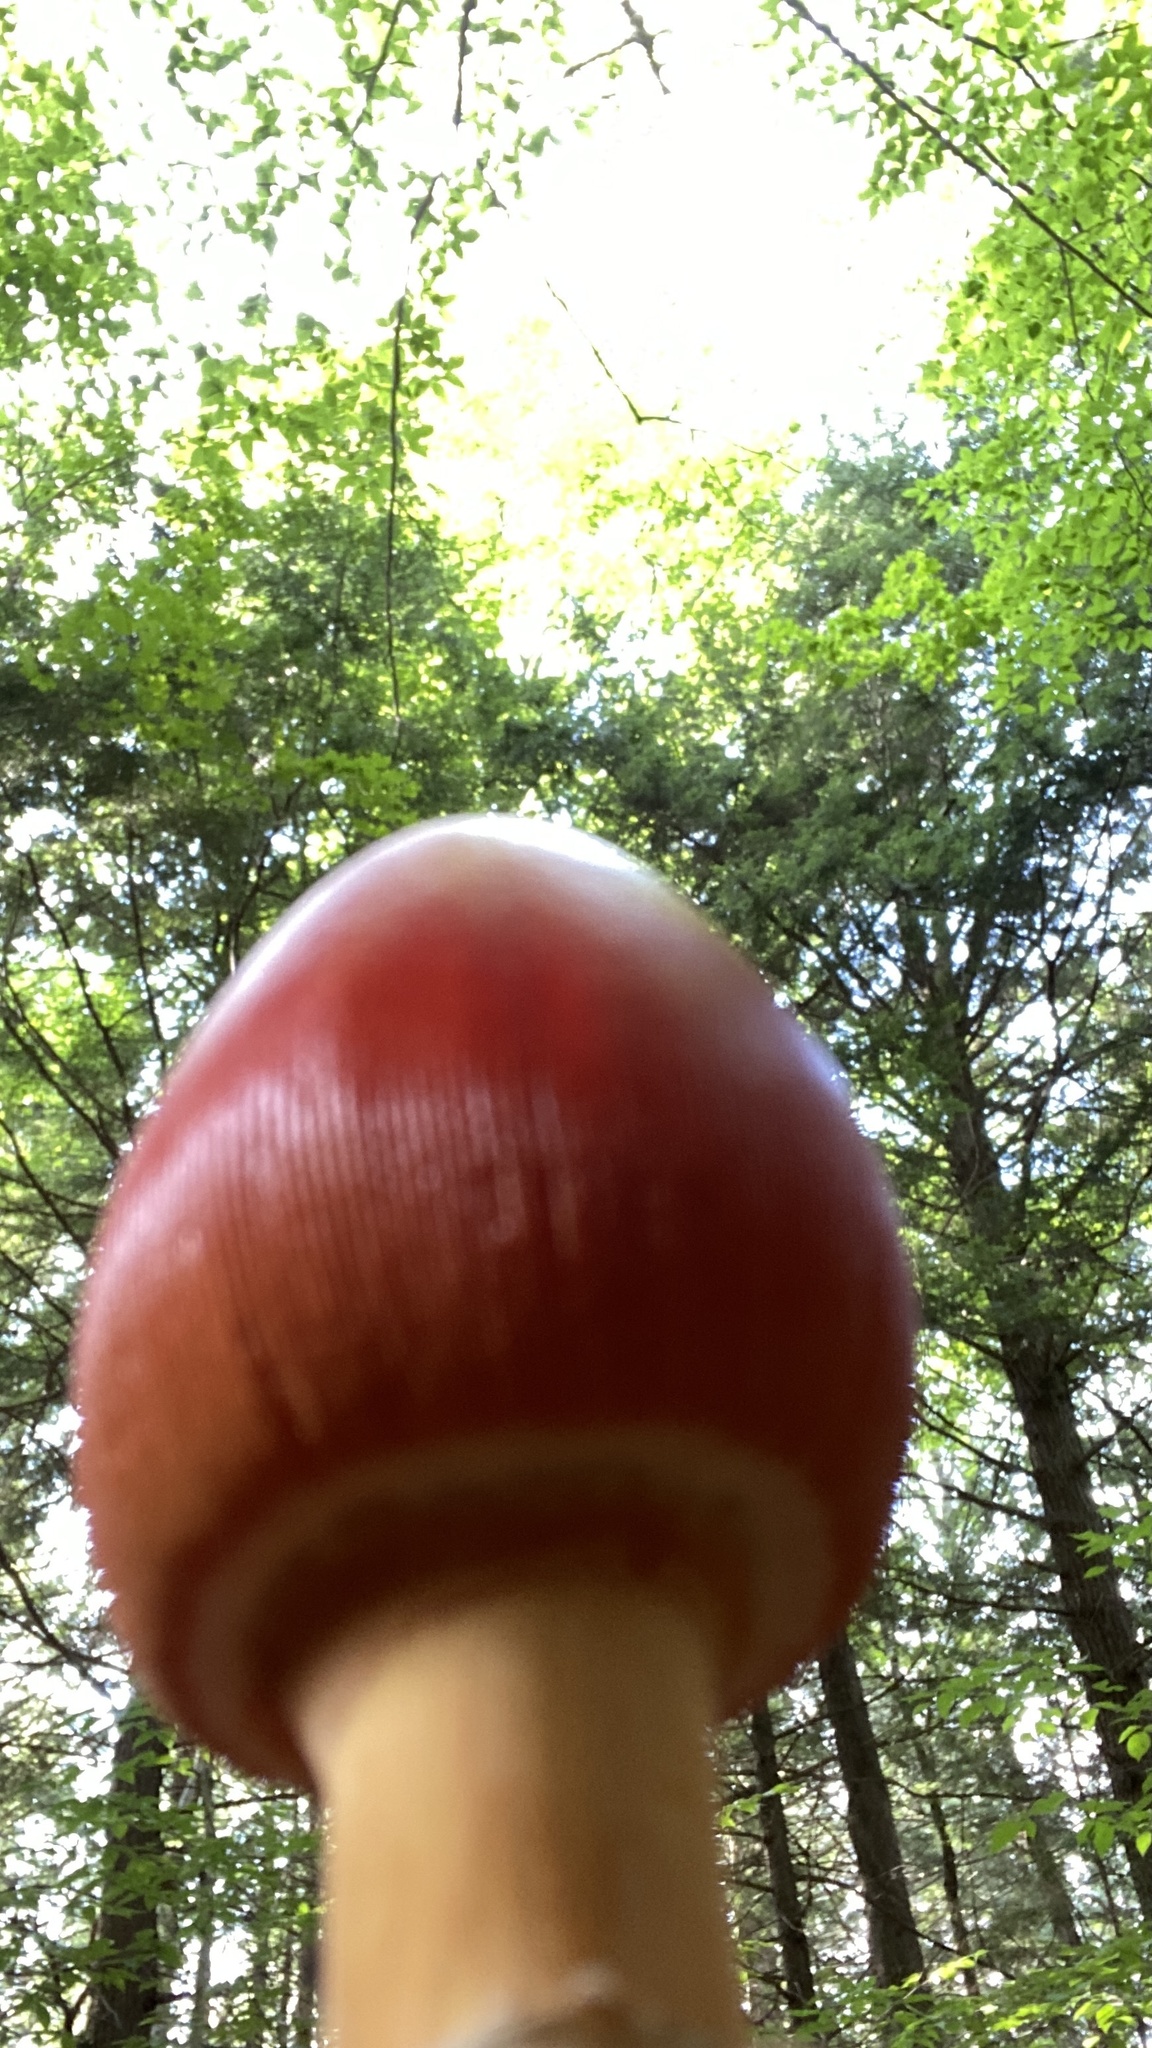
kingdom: Fungi
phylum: Basidiomycota
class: Agaricomycetes
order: Agaricales
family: Amanitaceae
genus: Amanita
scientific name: Amanita jacksonii
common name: Jackson's slender caesar
